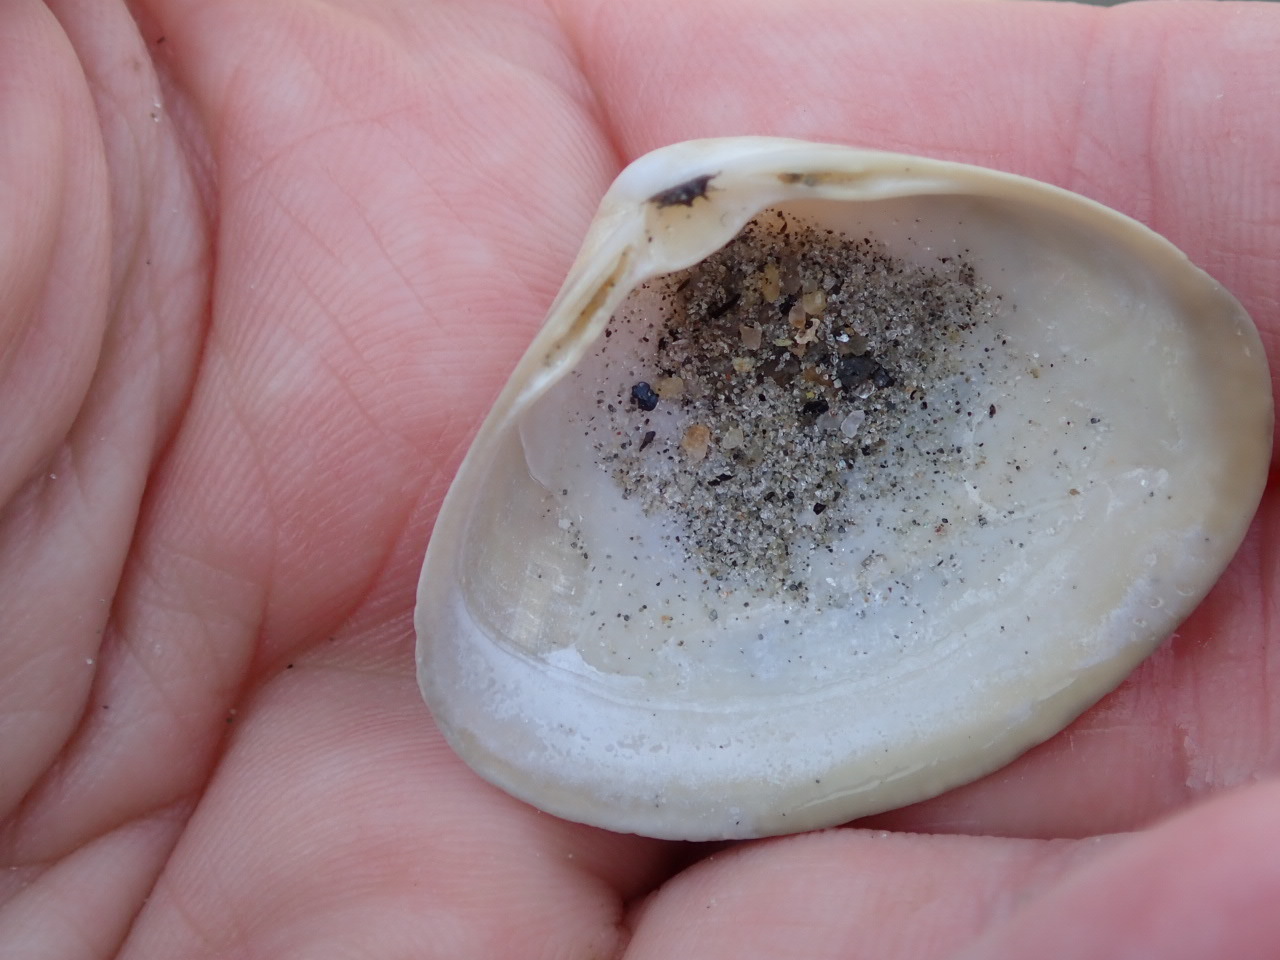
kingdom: Animalia
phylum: Mollusca
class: Bivalvia
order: Venerida
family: Mactridae
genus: Spisula
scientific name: Spisula solidissima
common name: Atlantic surf clam
